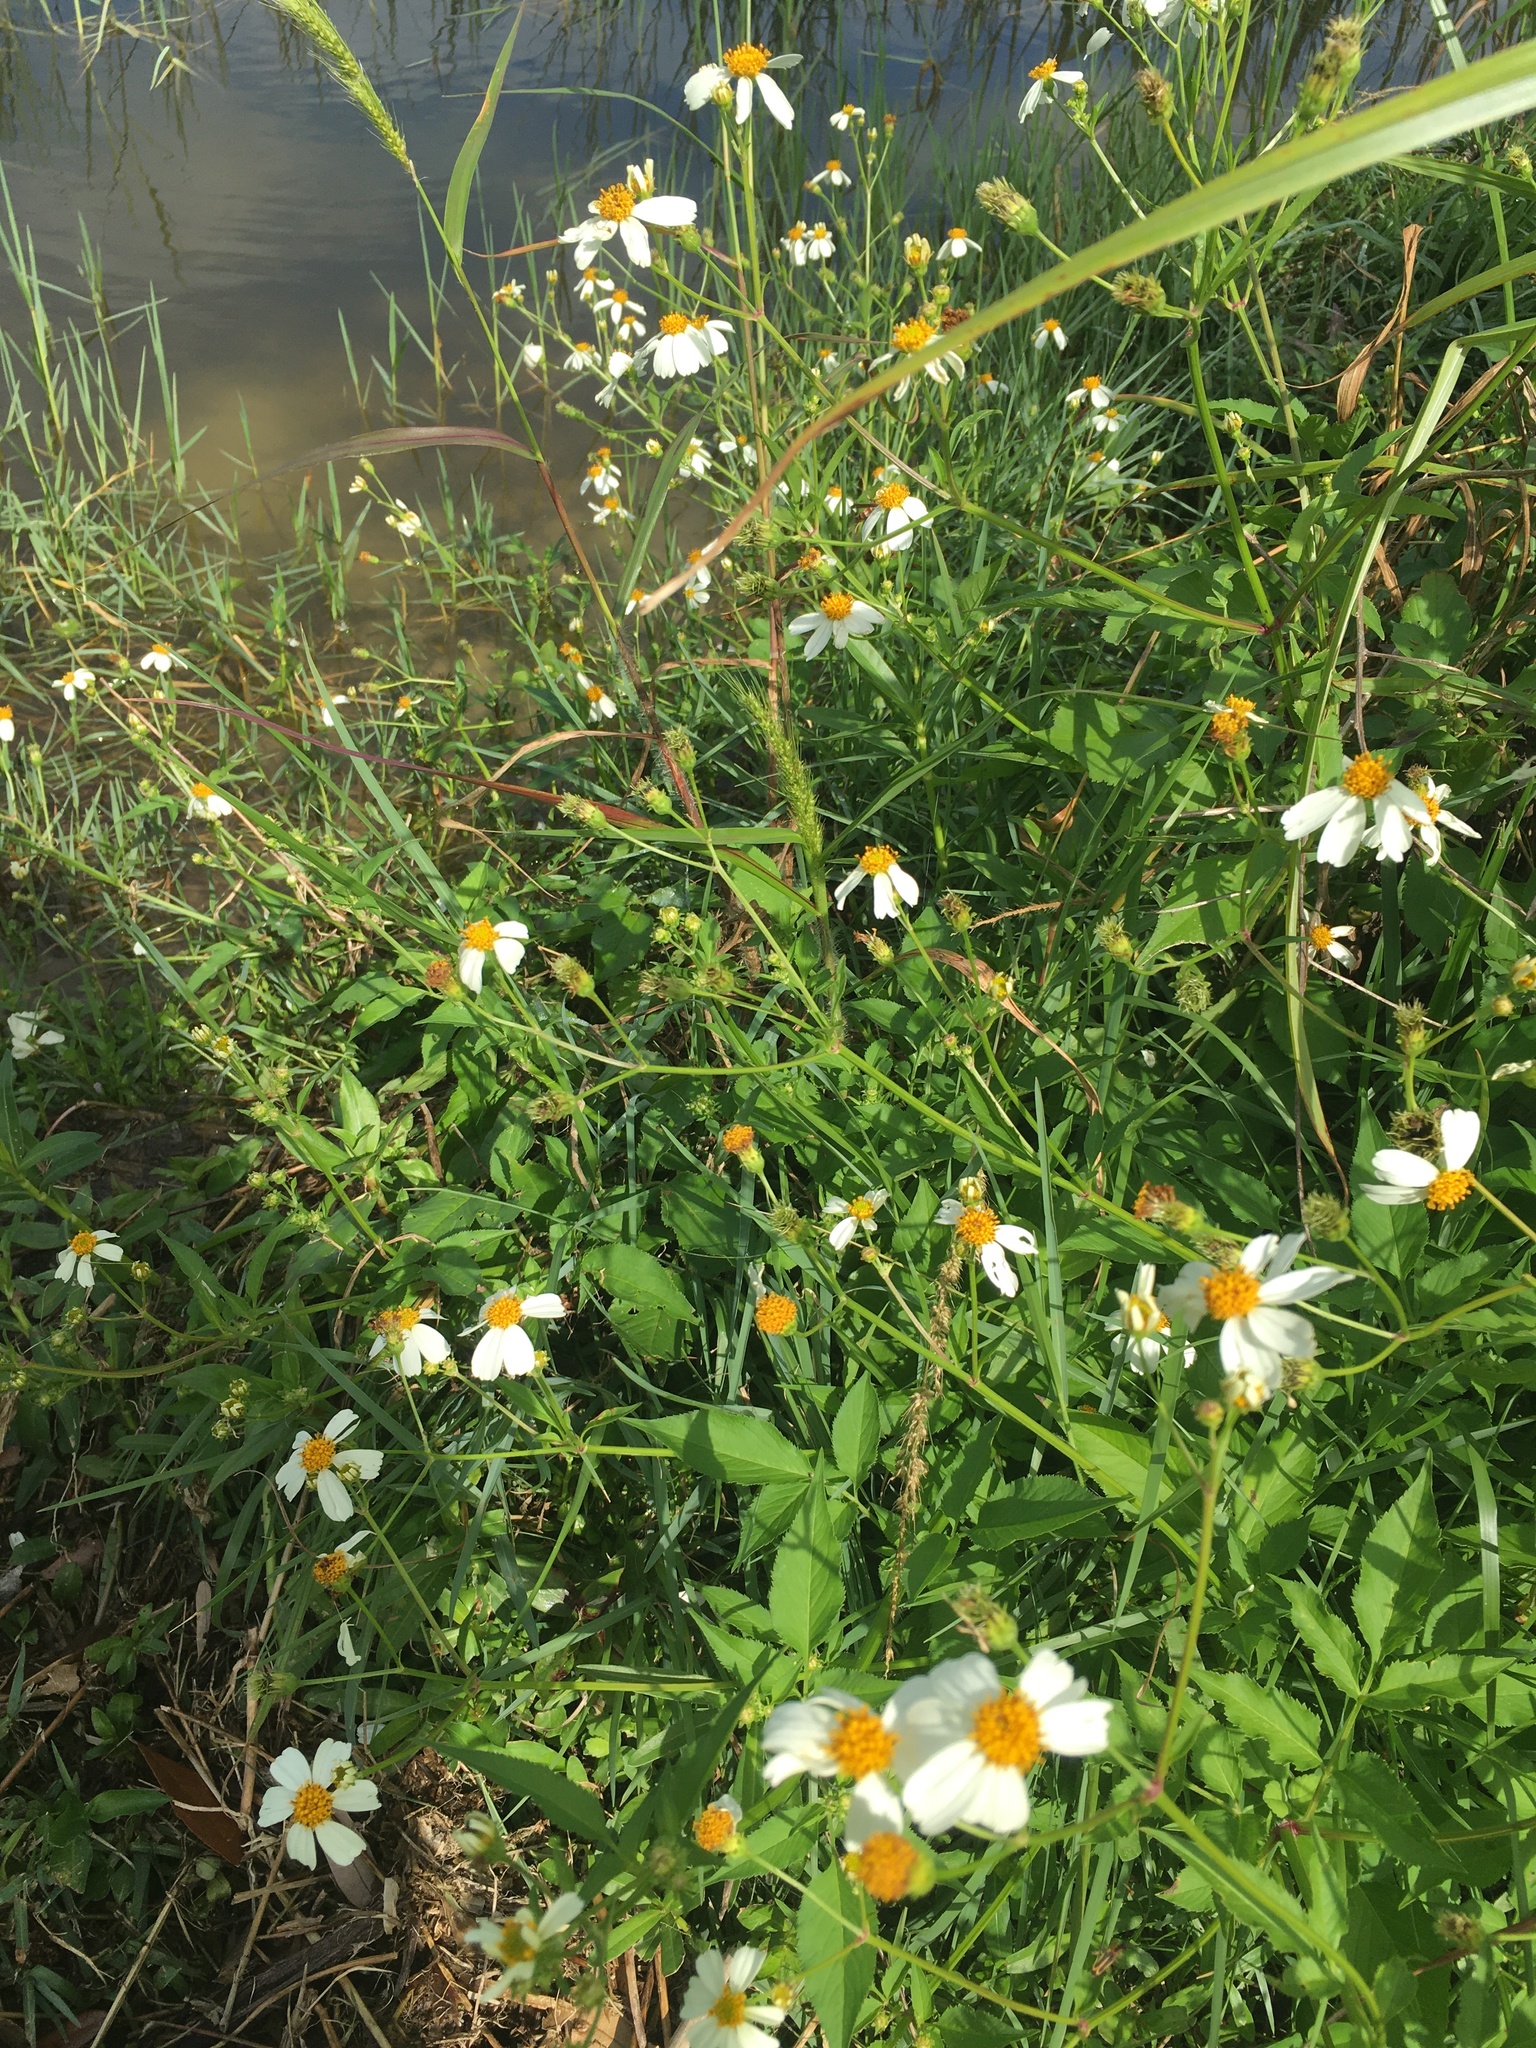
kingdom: Plantae
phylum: Tracheophyta
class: Magnoliopsida
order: Asterales
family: Asteraceae
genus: Bidens
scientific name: Bidens alba
